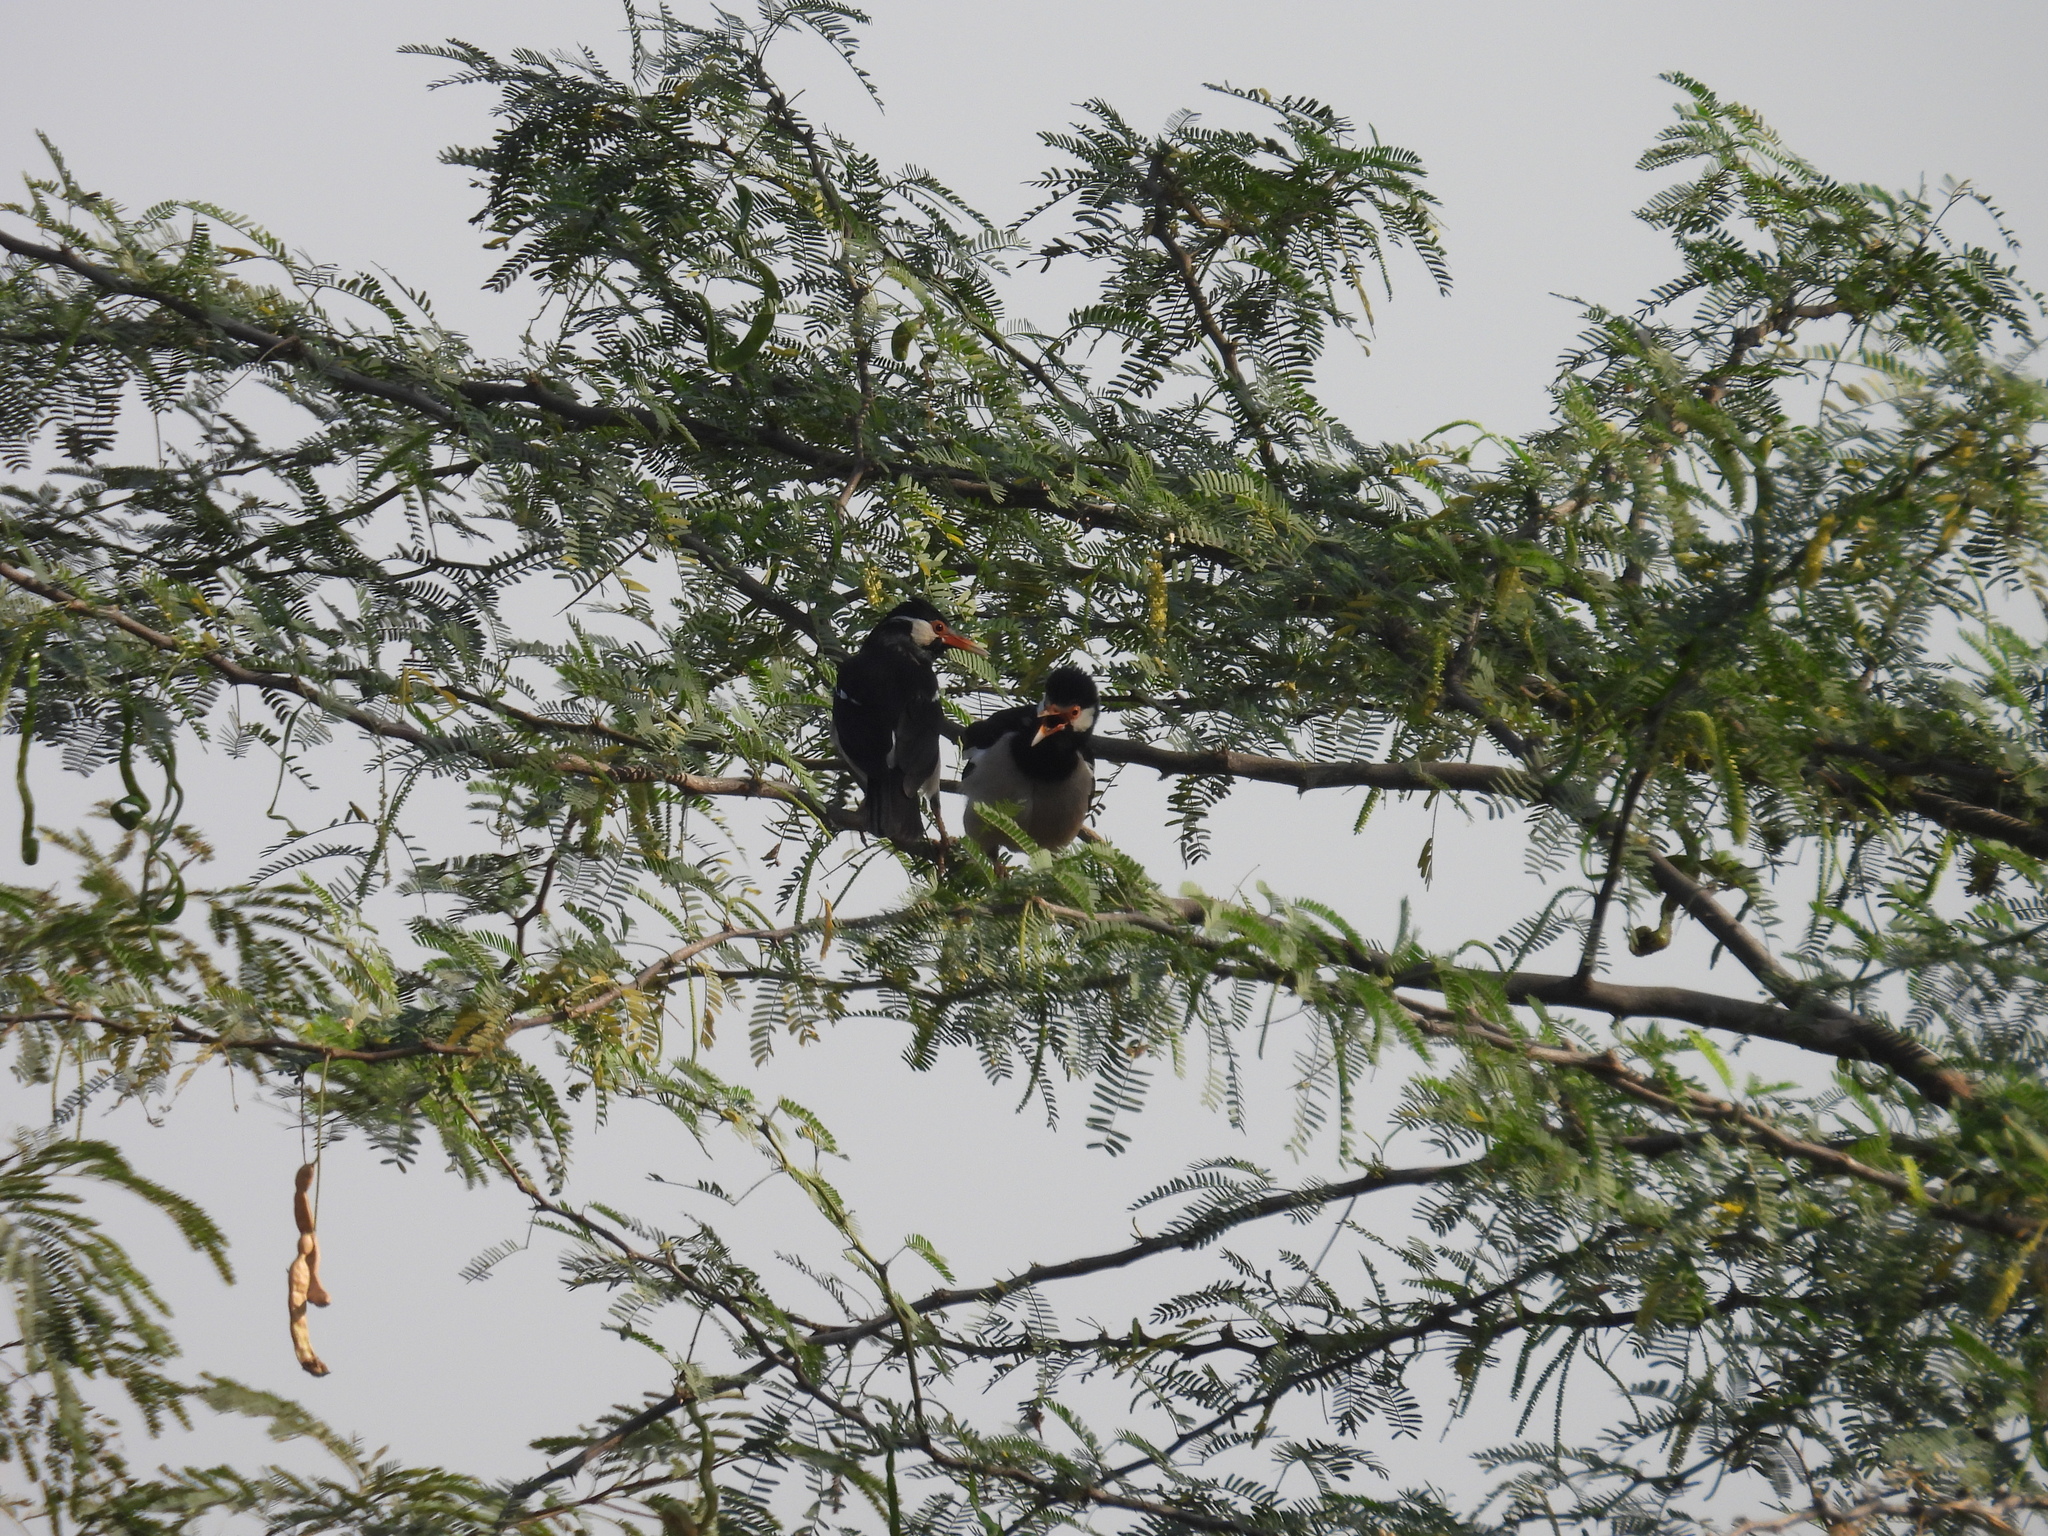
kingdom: Animalia
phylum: Chordata
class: Aves
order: Passeriformes
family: Sturnidae
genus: Gracupica
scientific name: Gracupica contra
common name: Pied myna
